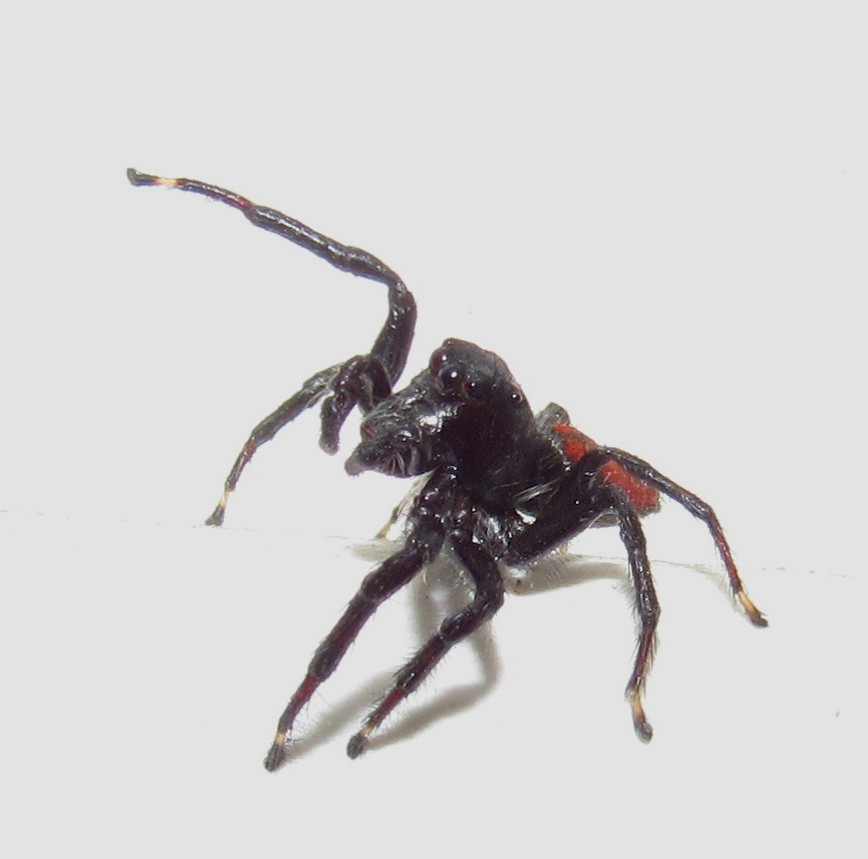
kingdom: Animalia
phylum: Arthropoda
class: Arachnida
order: Araneae
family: Salticidae
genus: Frigga
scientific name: Frigga quintensis
